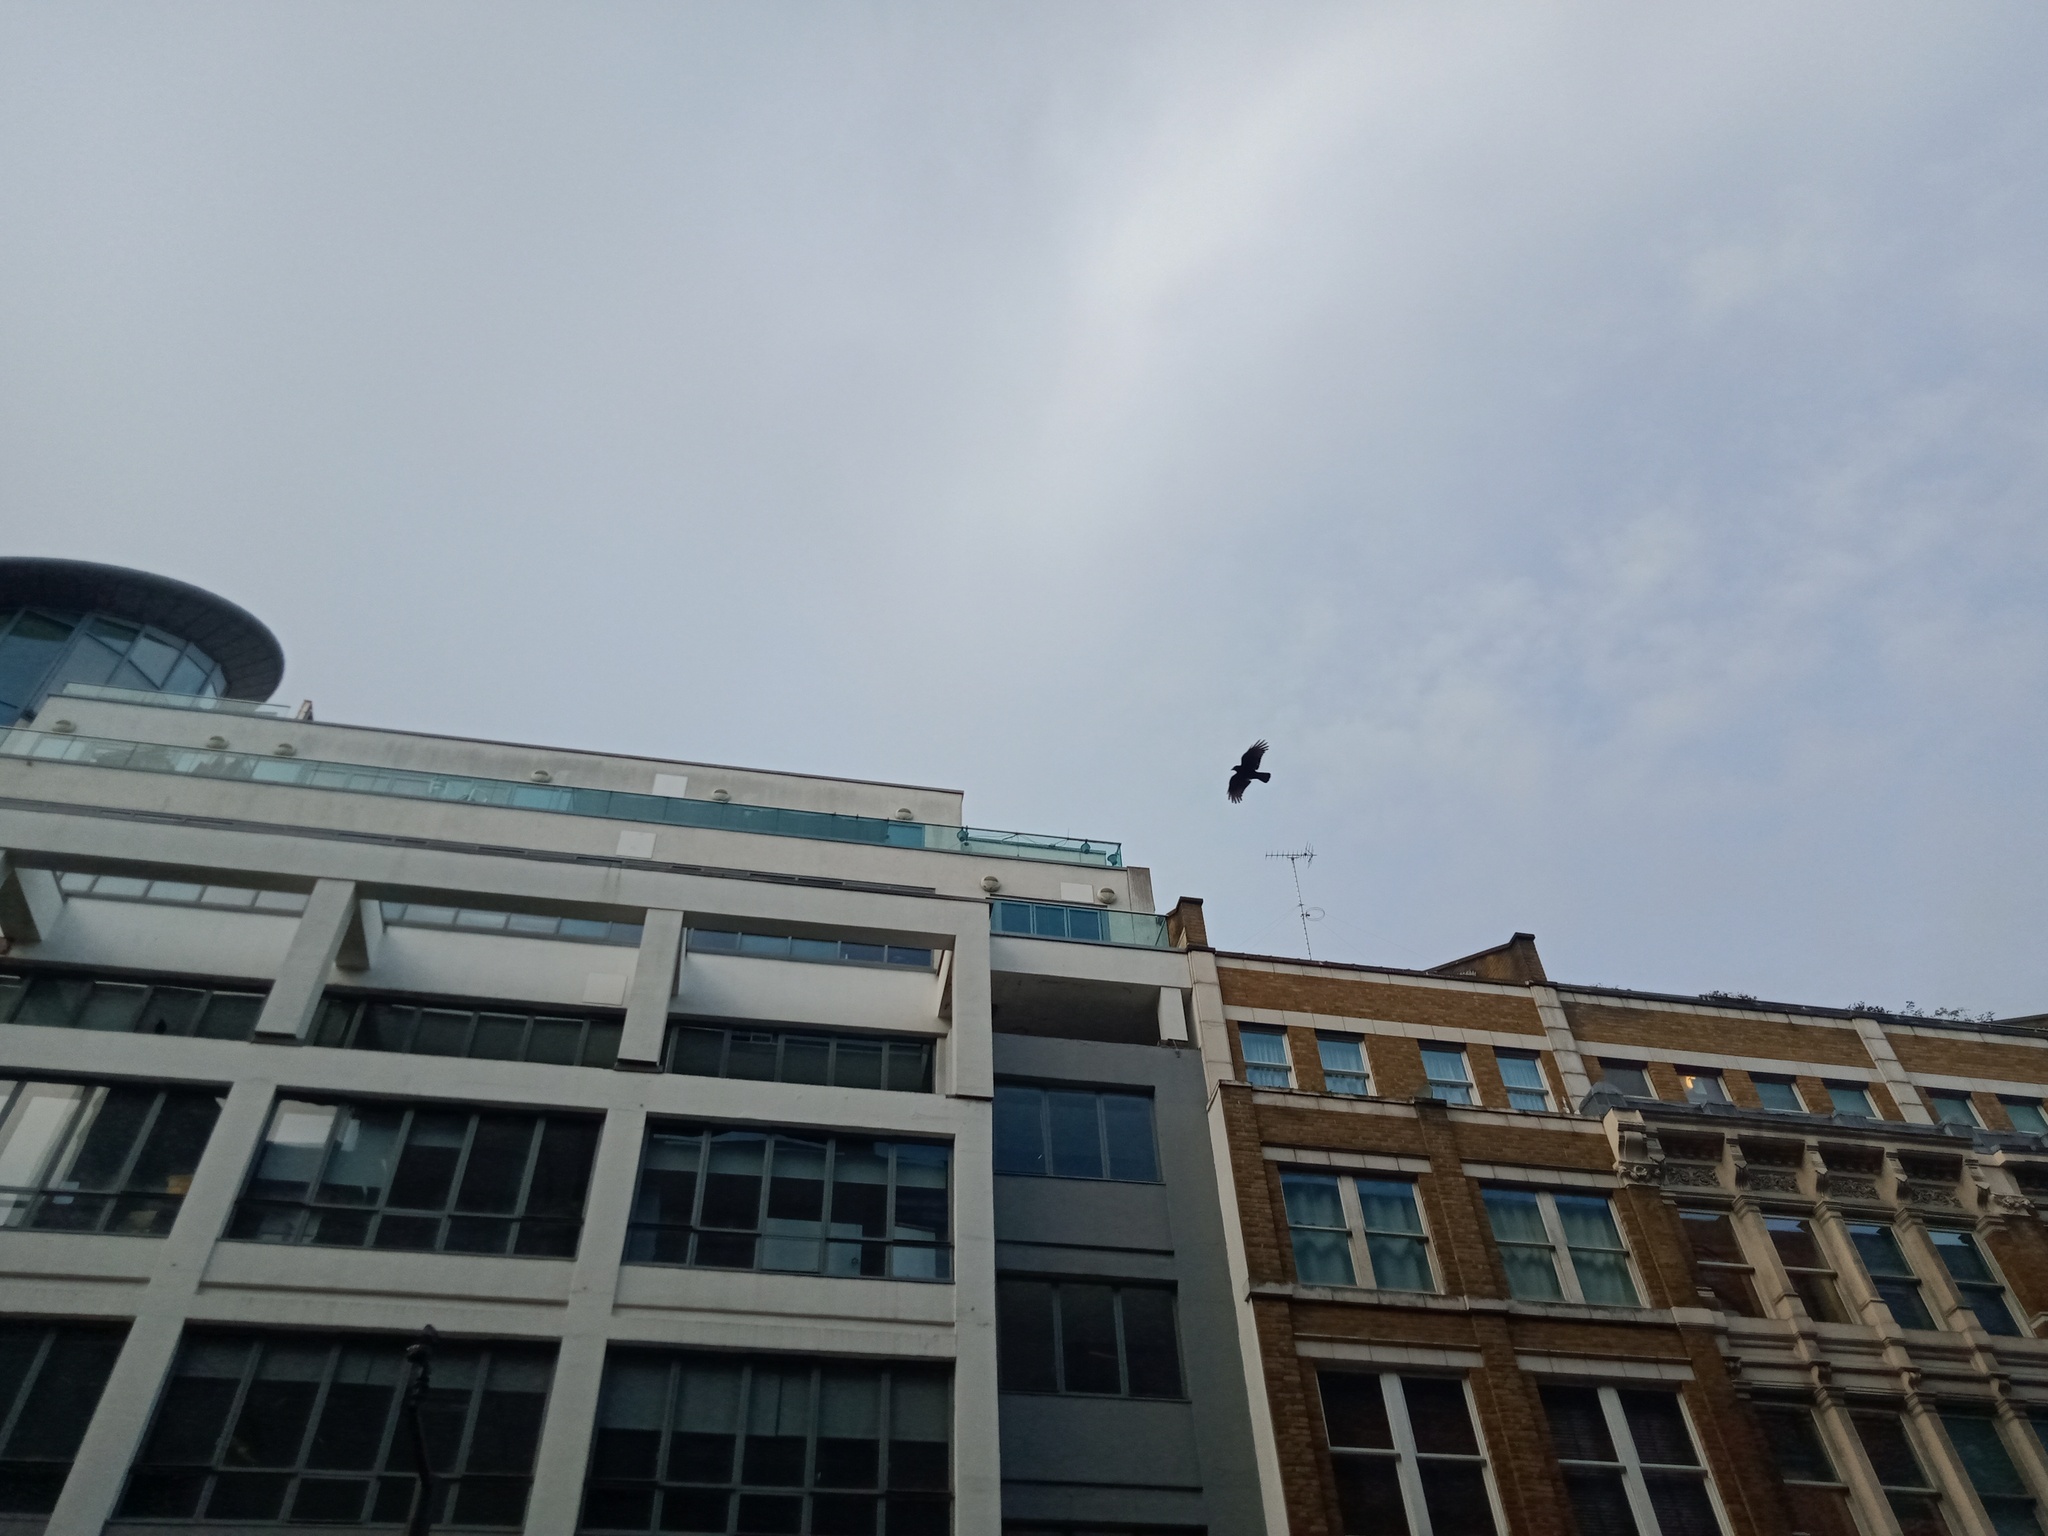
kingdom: Animalia
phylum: Chordata
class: Aves
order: Passeriformes
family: Corvidae
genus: Corvus
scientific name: Corvus corone
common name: Carrion crow
